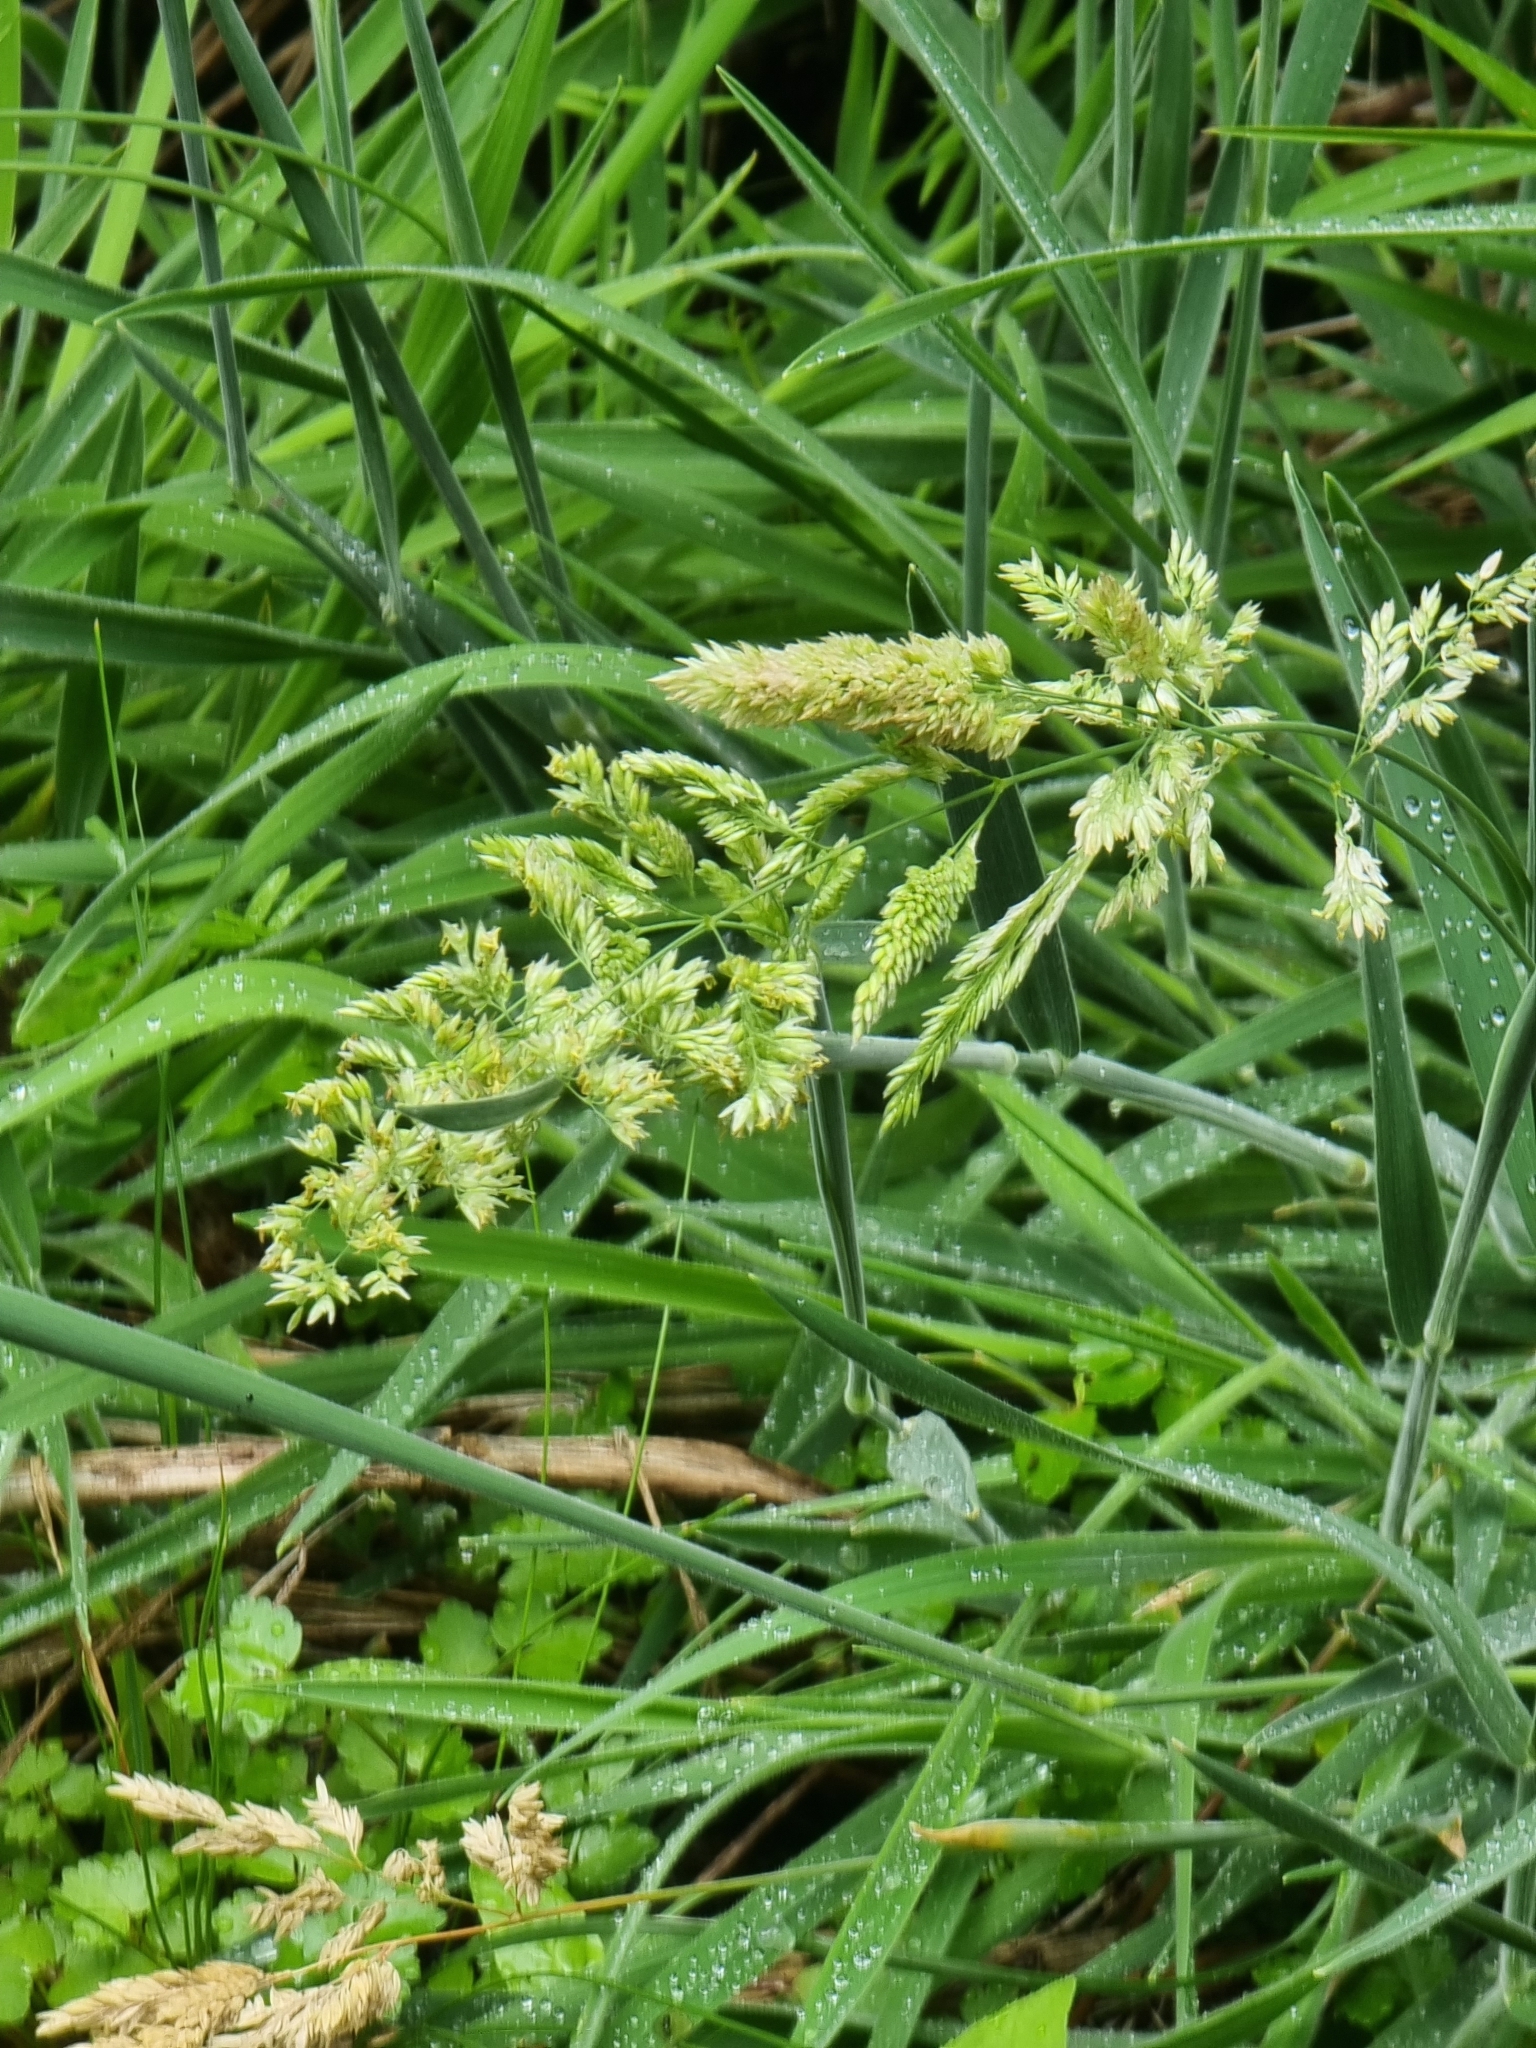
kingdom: Plantae
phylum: Tracheophyta
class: Liliopsida
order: Poales
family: Poaceae
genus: Holcus
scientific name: Holcus lanatus
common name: Yorkshire-fog
